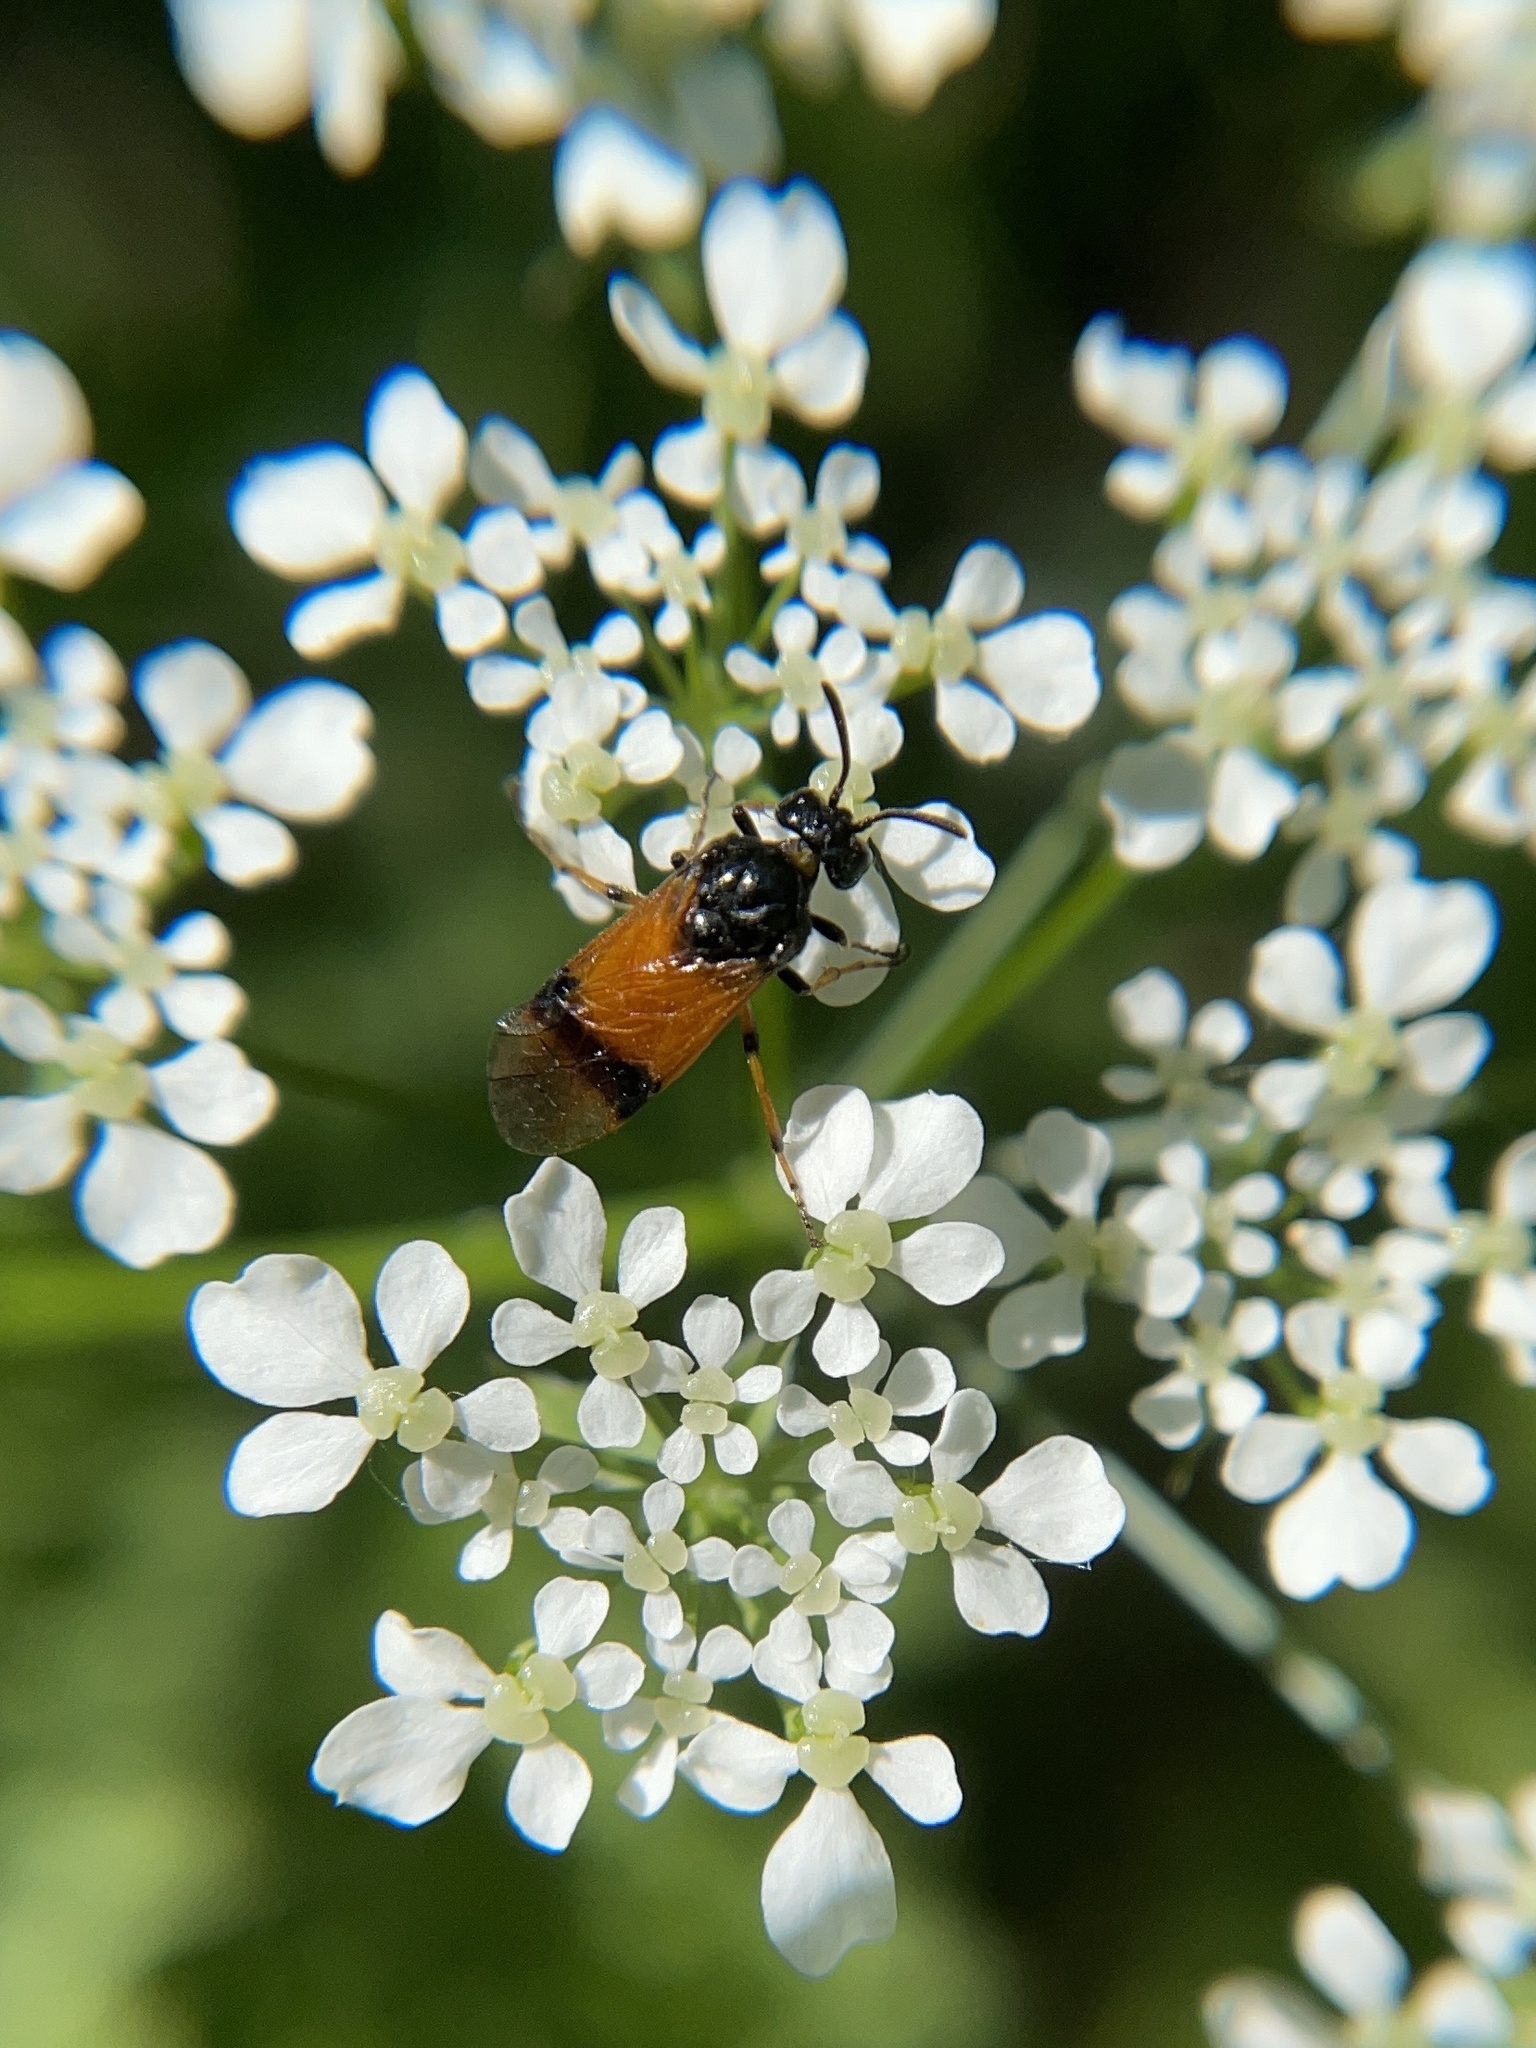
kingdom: Animalia
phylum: Arthropoda
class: Insecta
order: Hymenoptera
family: Argidae
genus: Arge
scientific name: Arge cyanocrocea
